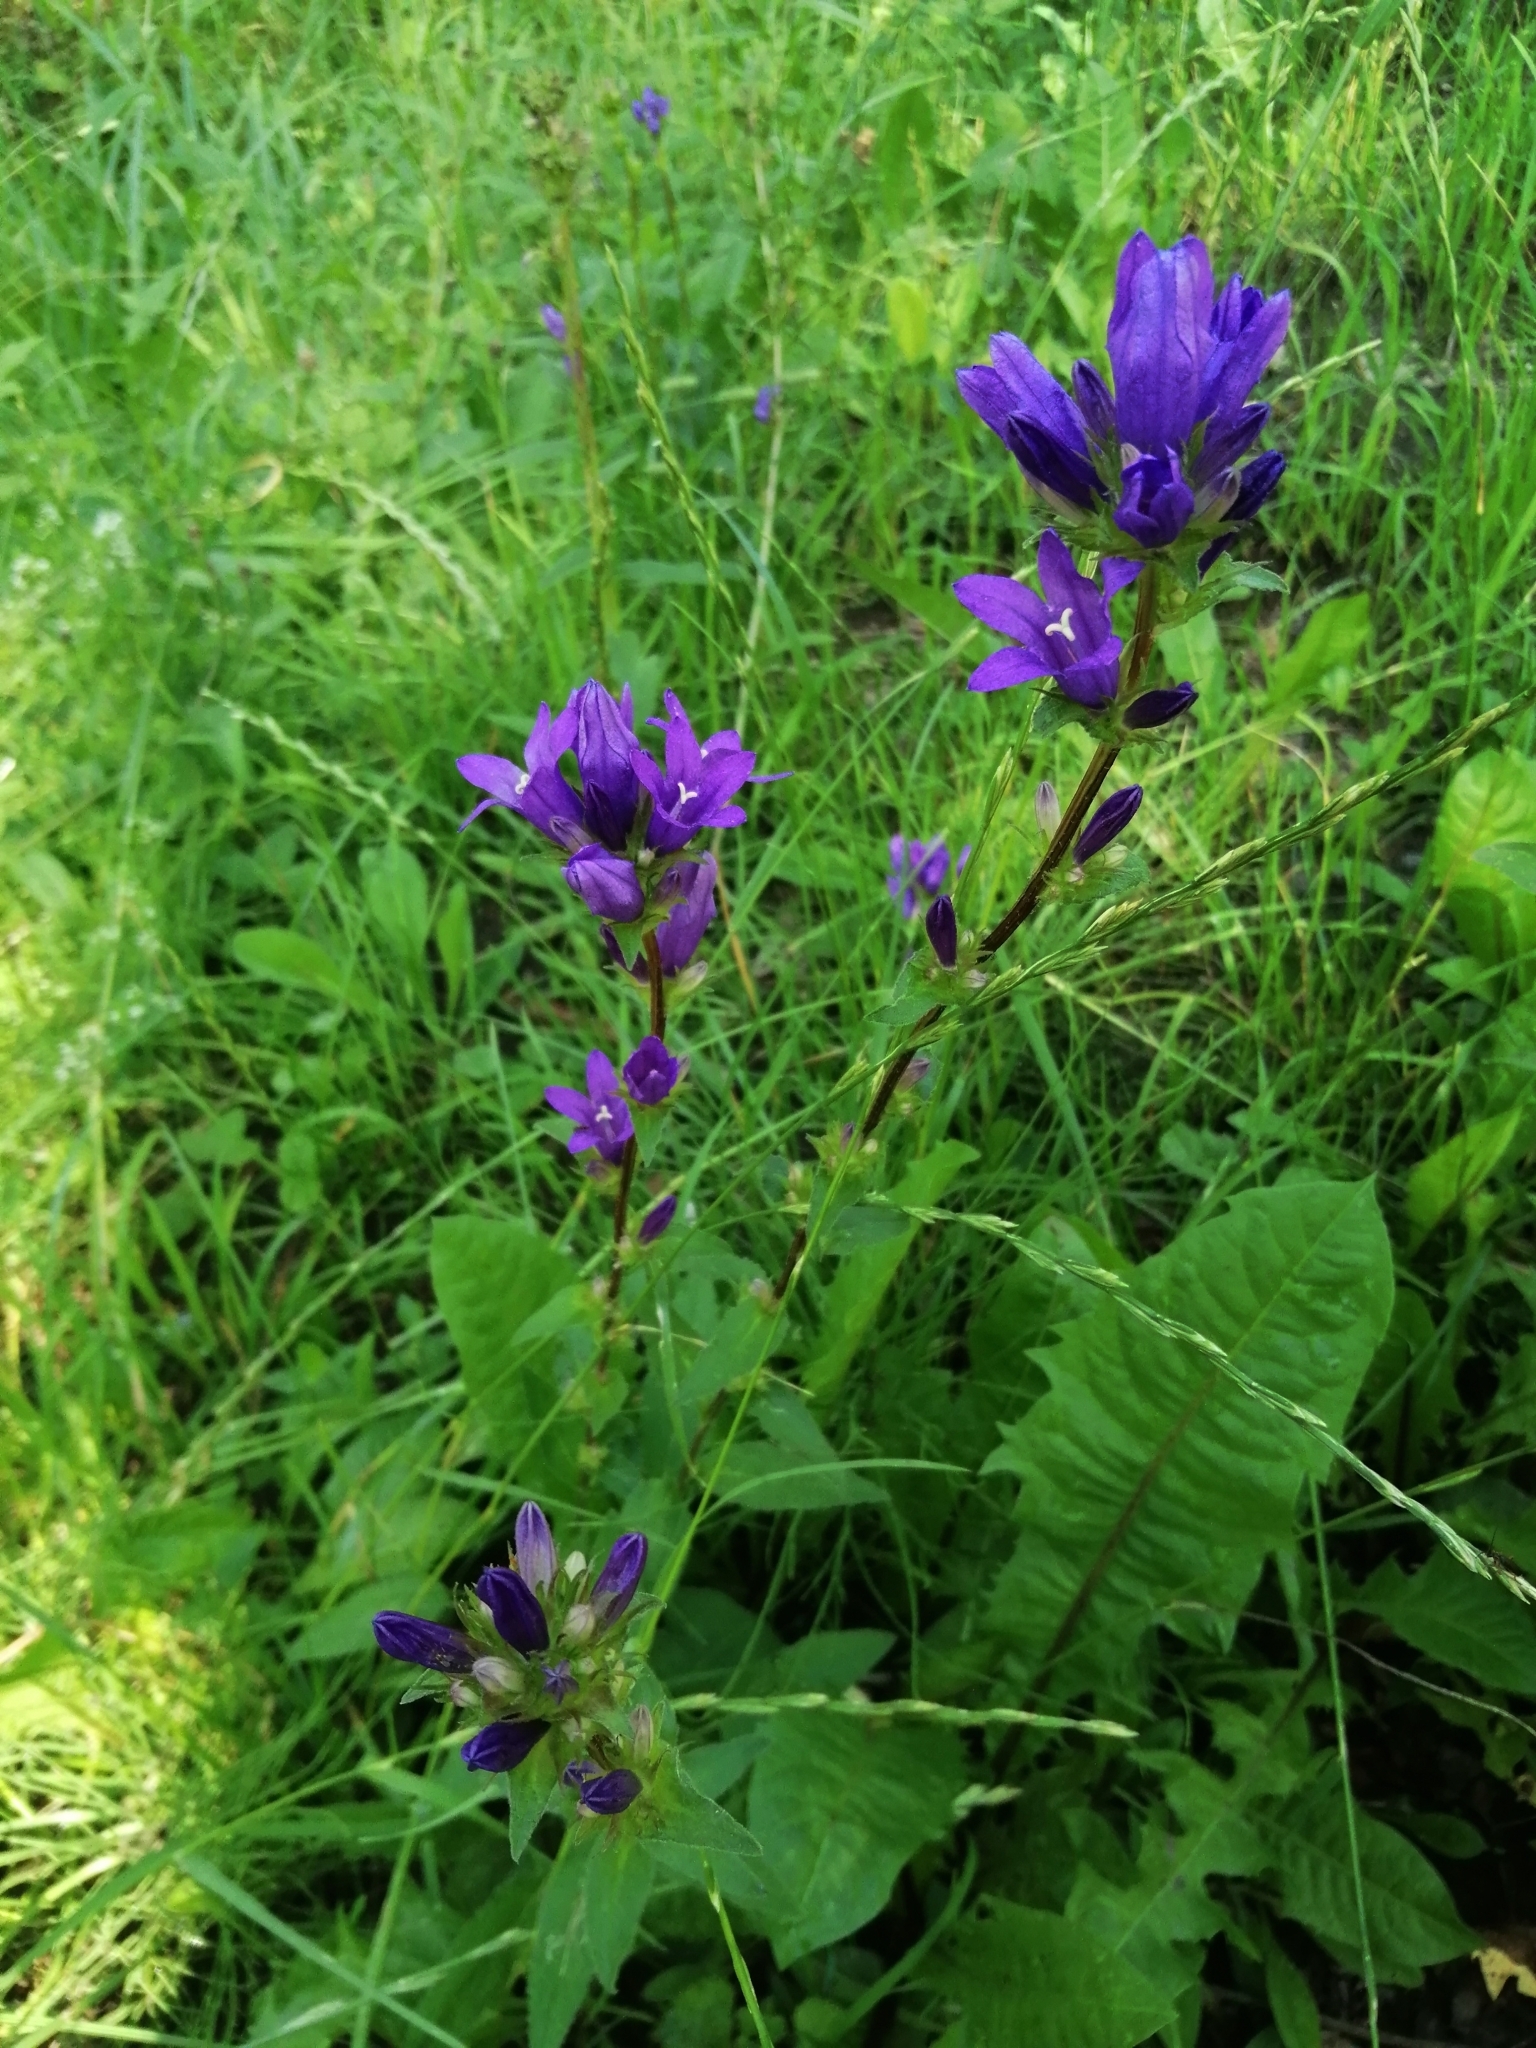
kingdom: Plantae
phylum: Tracheophyta
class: Magnoliopsida
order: Asterales
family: Campanulaceae
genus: Campanula
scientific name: Campanula glomerata
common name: Clustered bellflower
